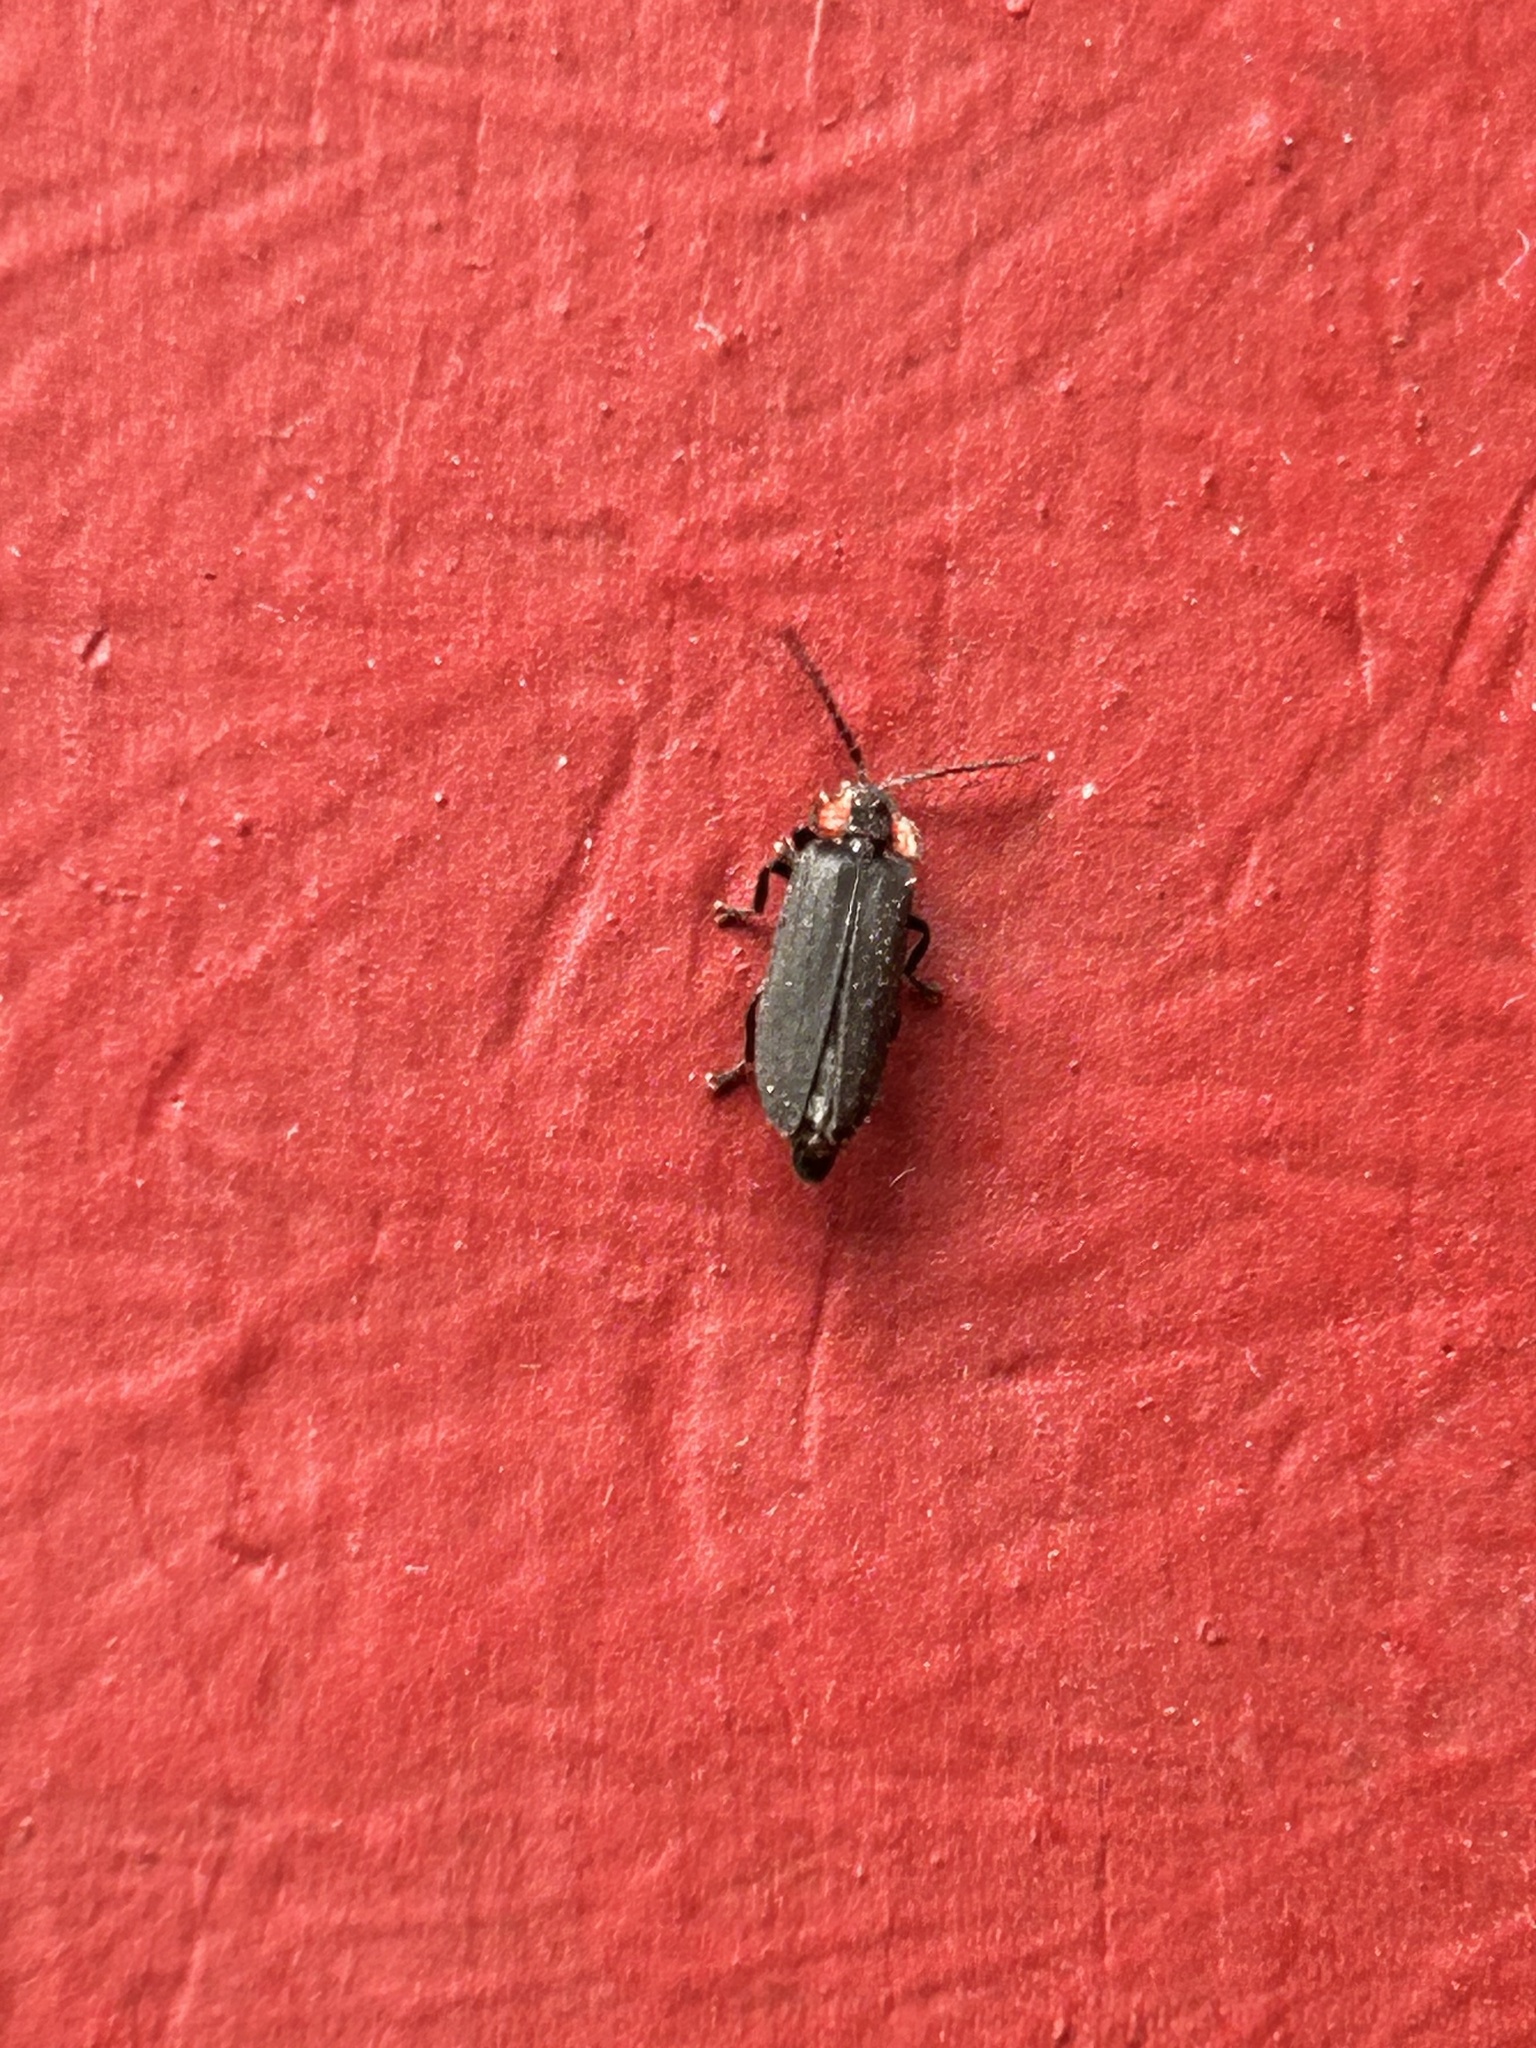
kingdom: Animalia
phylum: Arthropoda
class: Insecta
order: Coleoptera
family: Lampyridae
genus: Pyropyga
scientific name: Pyropyga nigricans
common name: Dark firefly
